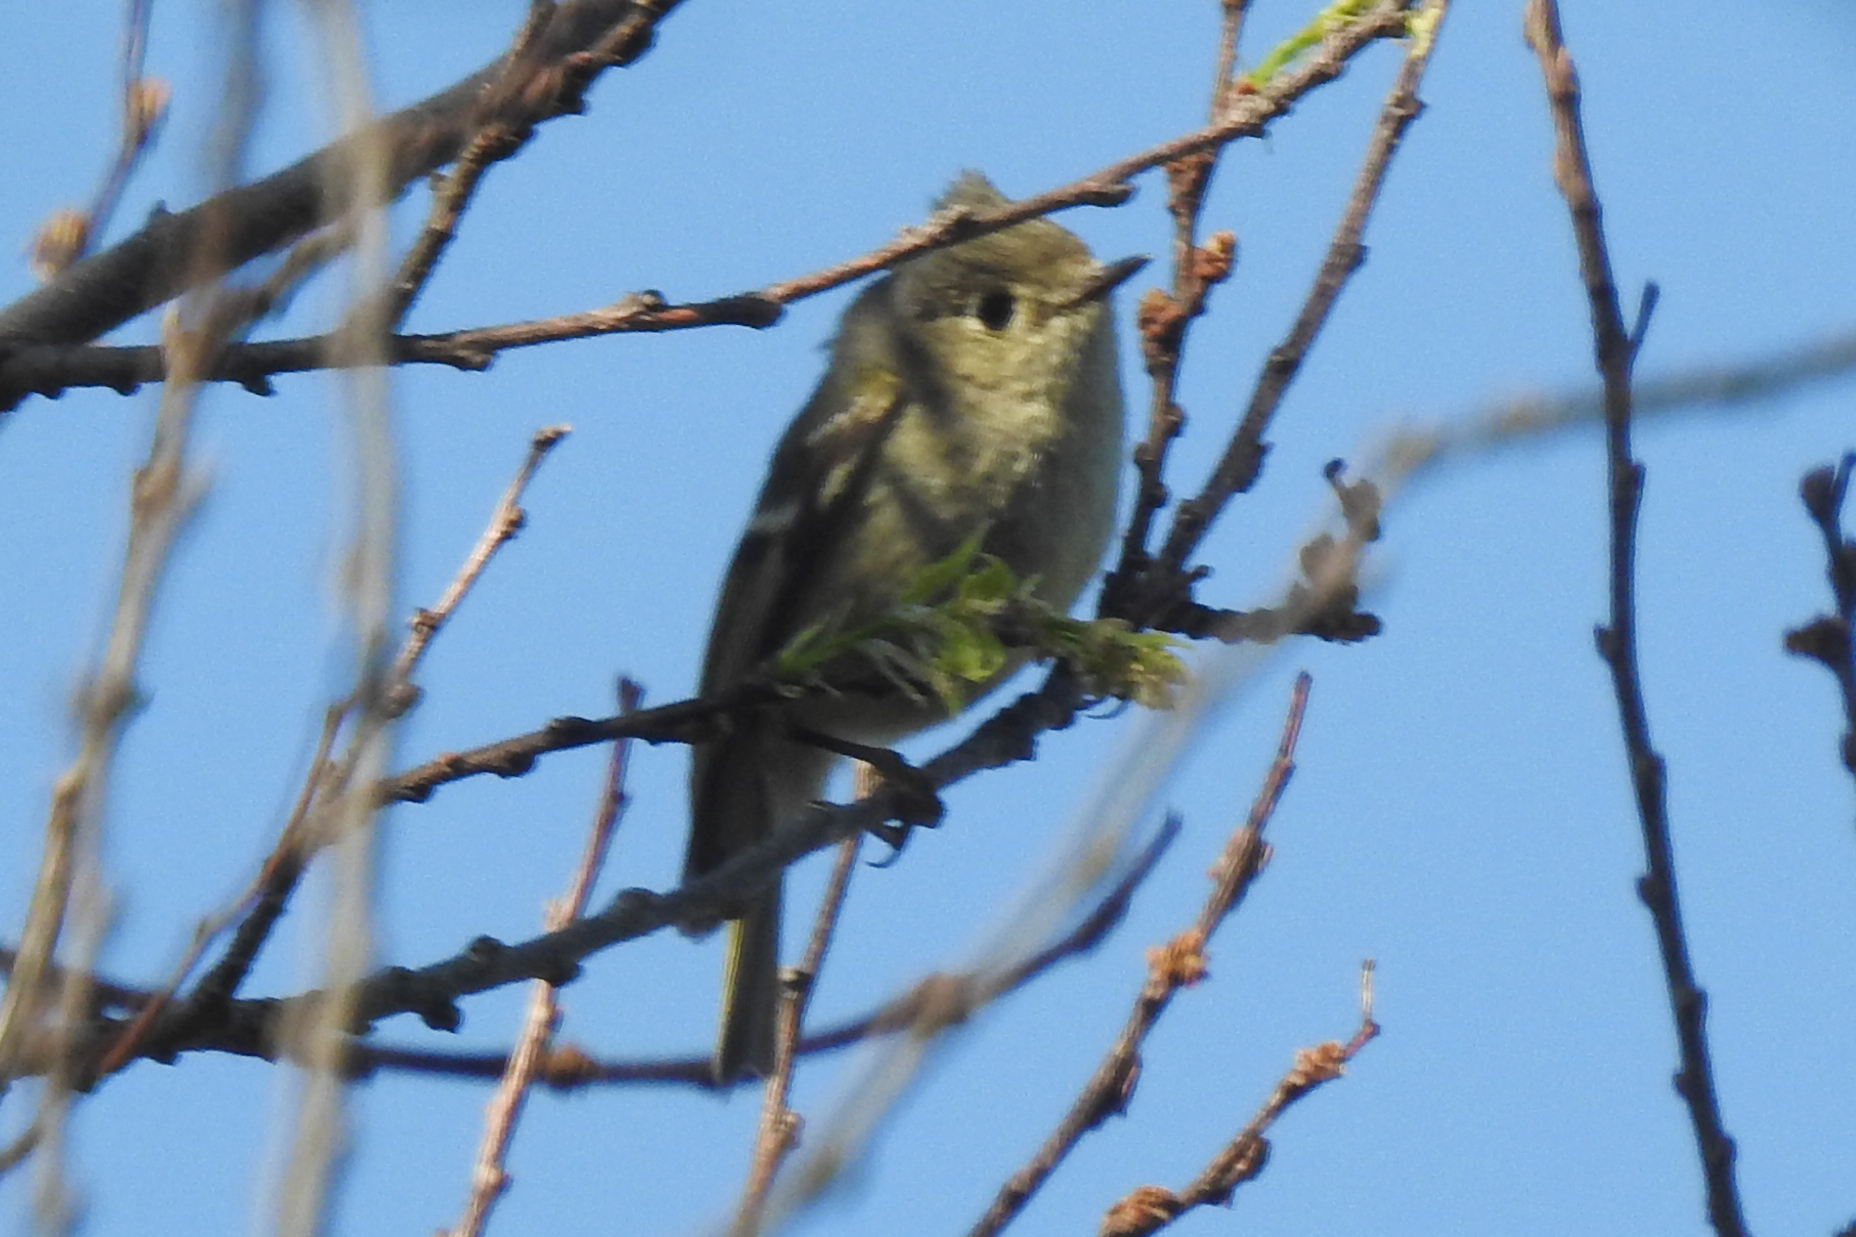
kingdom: Animalia
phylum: Chordata
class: Aves
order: Passeriformes
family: Regulidae
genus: Regulus
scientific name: Regulus calendula
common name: Ruby-crowned kinglet
